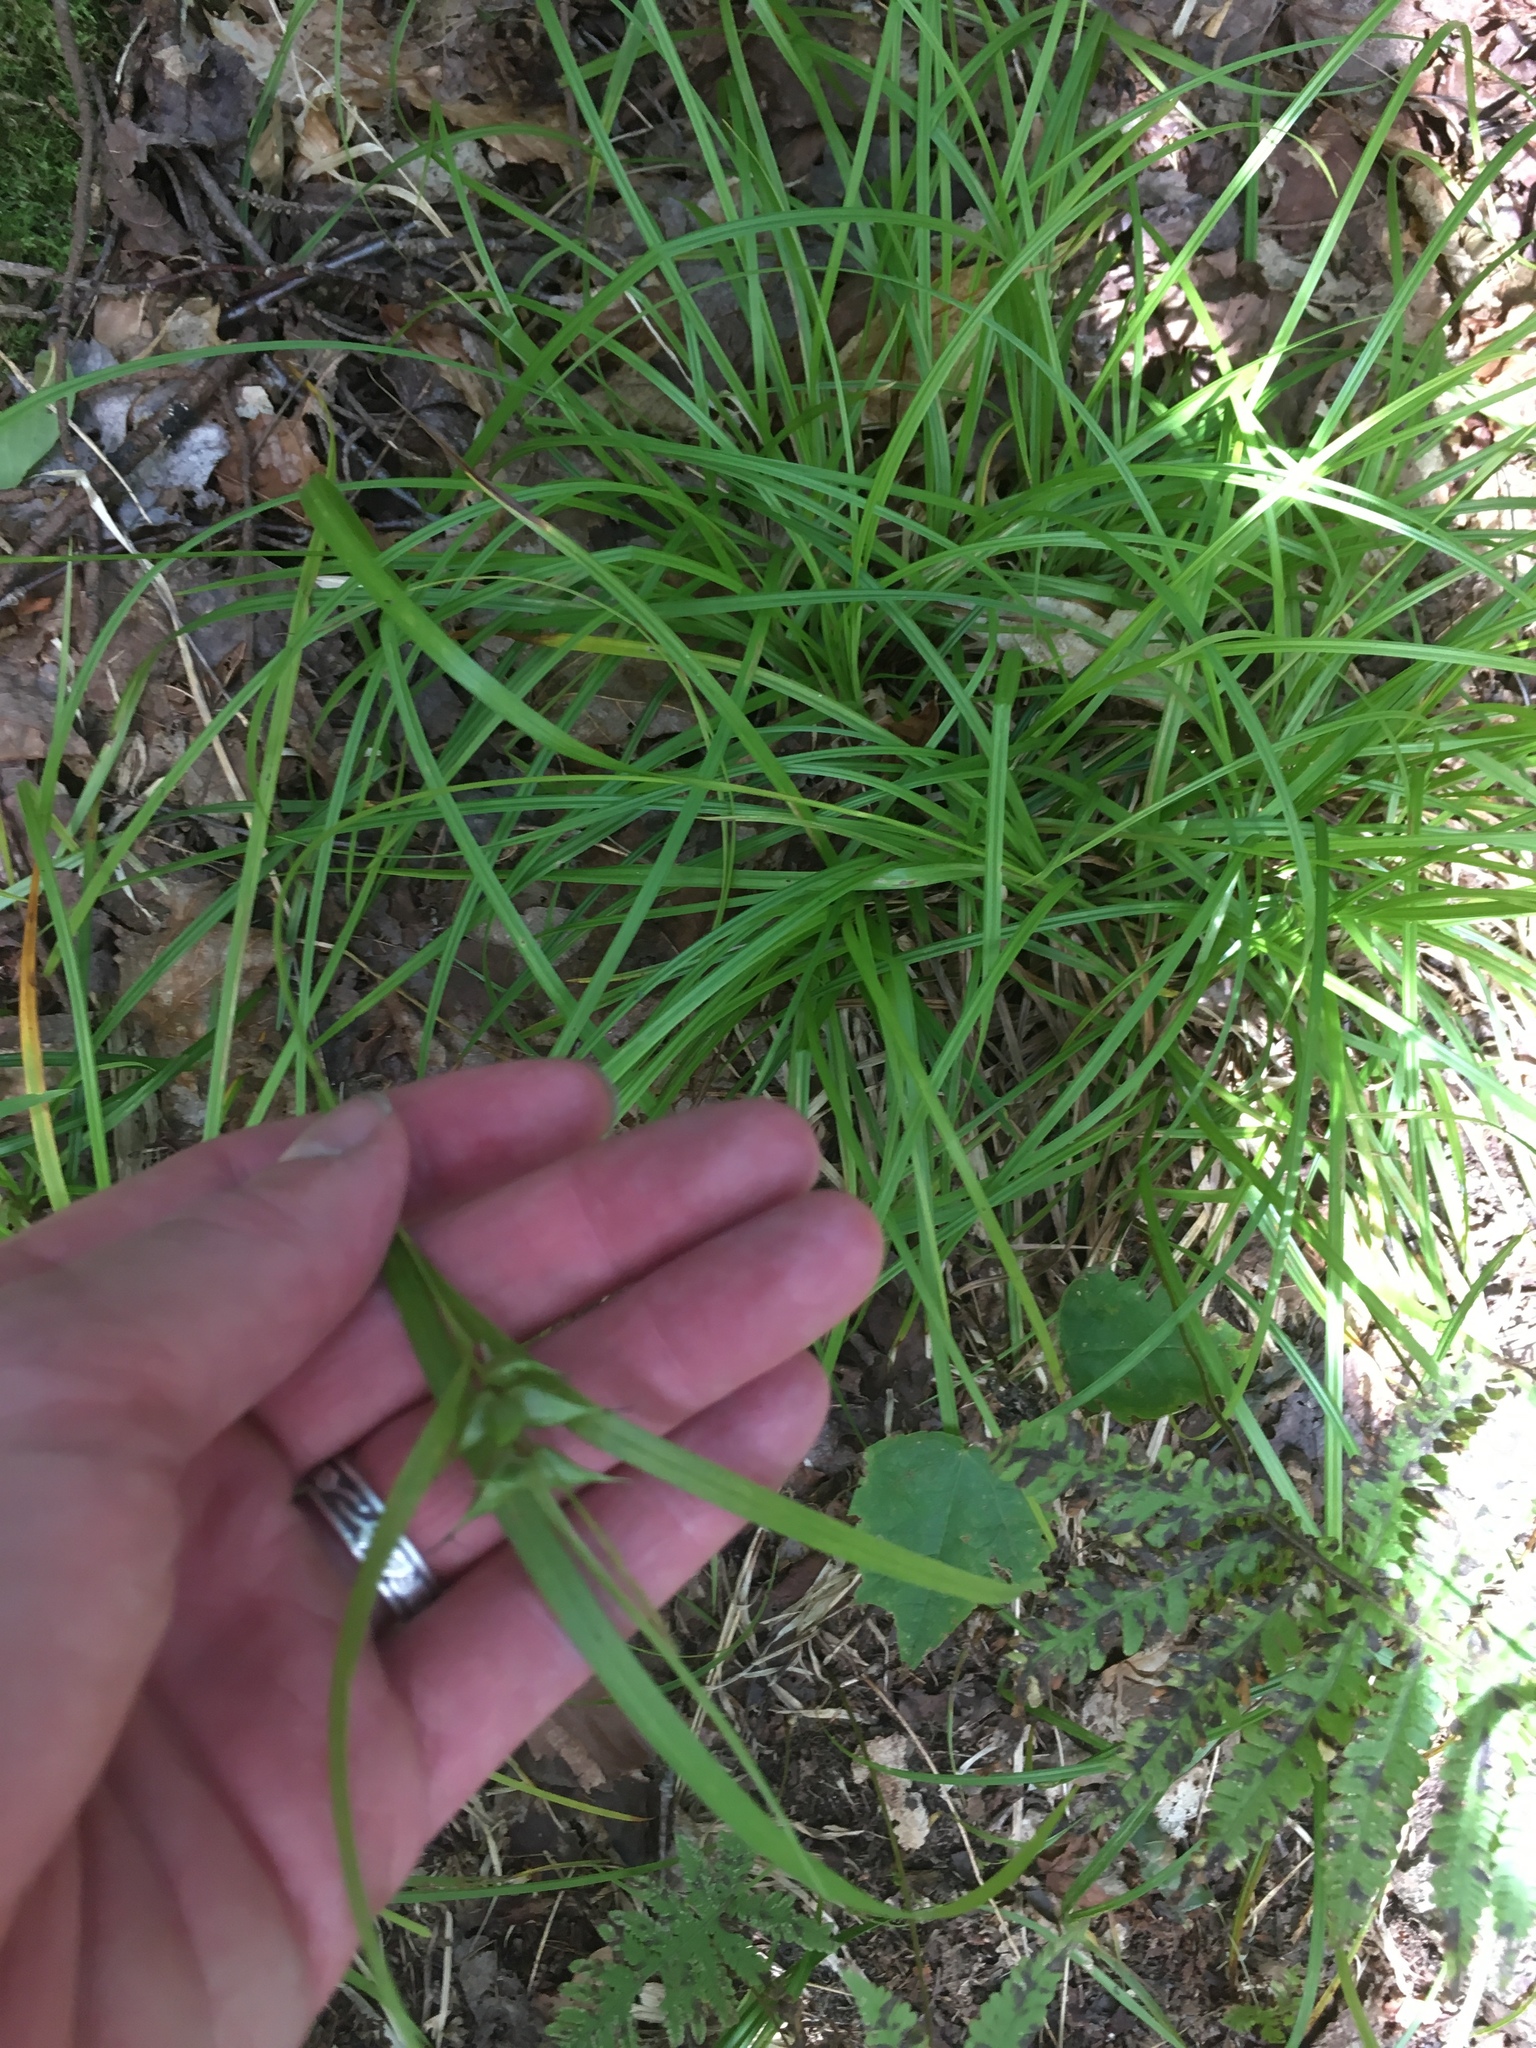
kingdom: Plantae
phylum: Tracheophyta
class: Liliopsida
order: Poales
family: Cyperaceae
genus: Carex
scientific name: Carex intumescens
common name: Greater bladder sedge
